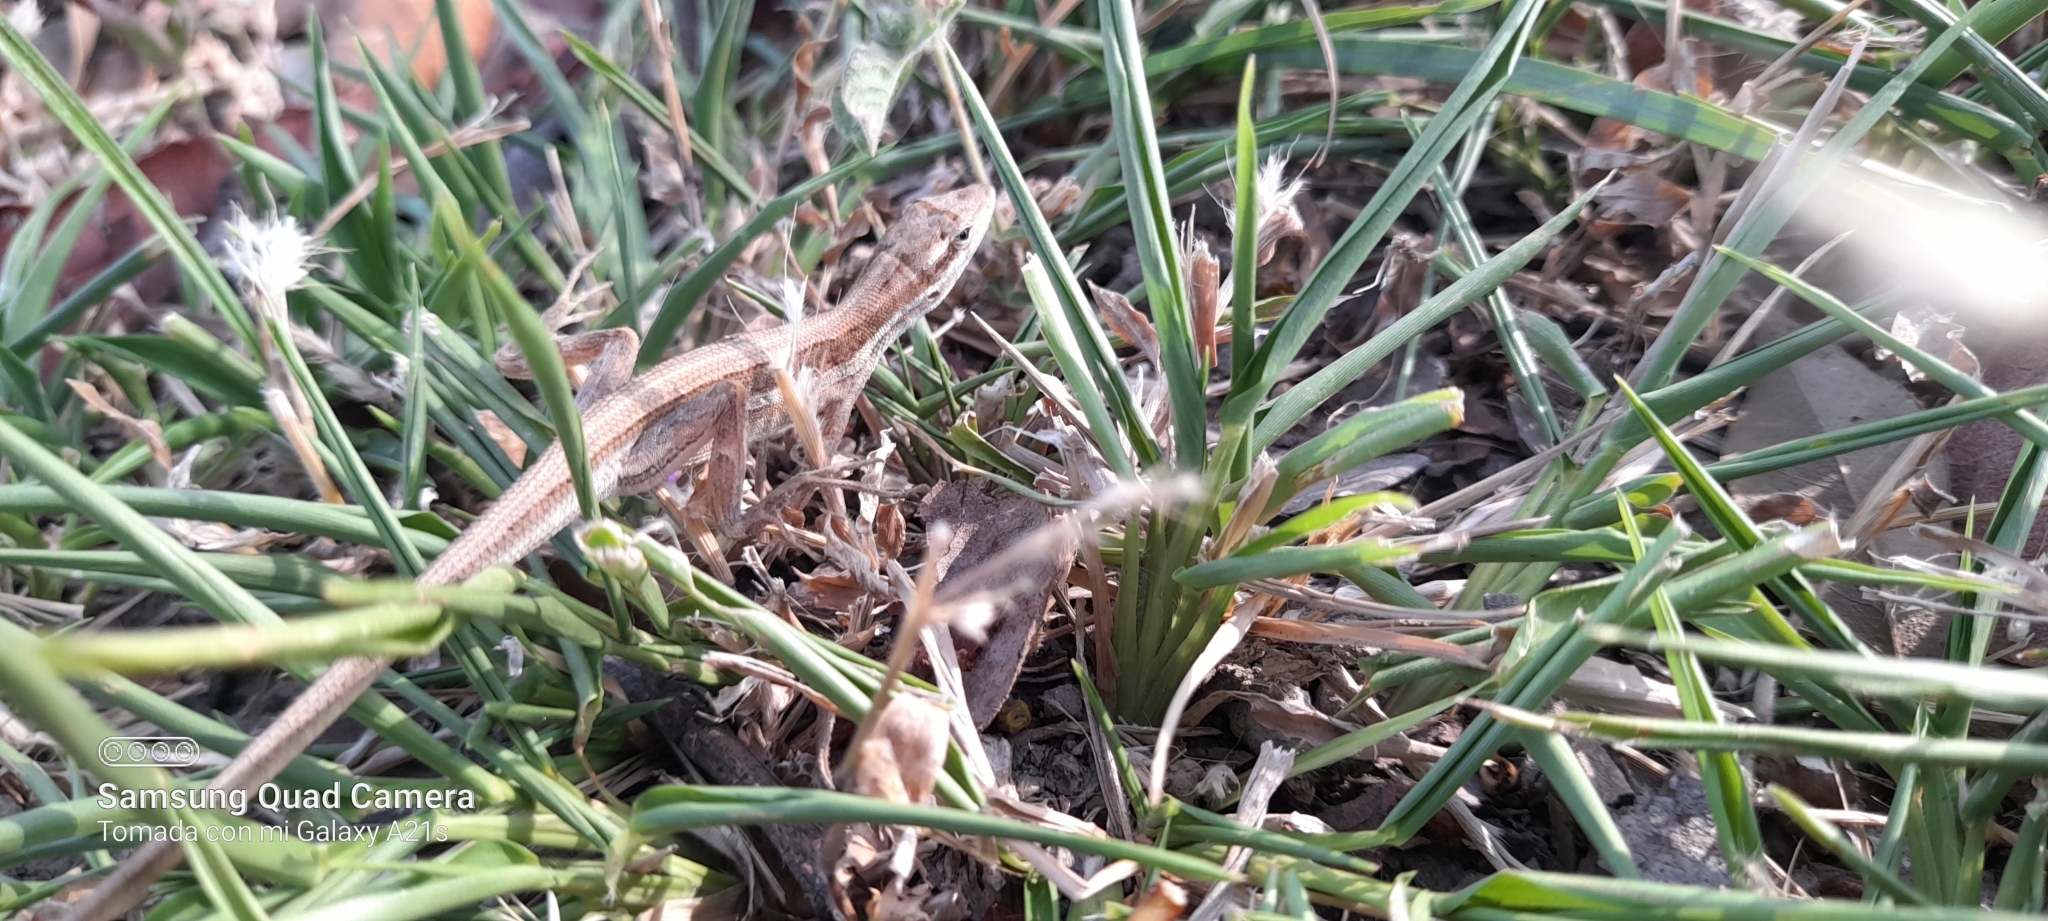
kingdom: Animalia
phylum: Chordata
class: Squamata
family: Dactyloidae
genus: Anolis
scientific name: Anolis auratus
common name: Grass anole
